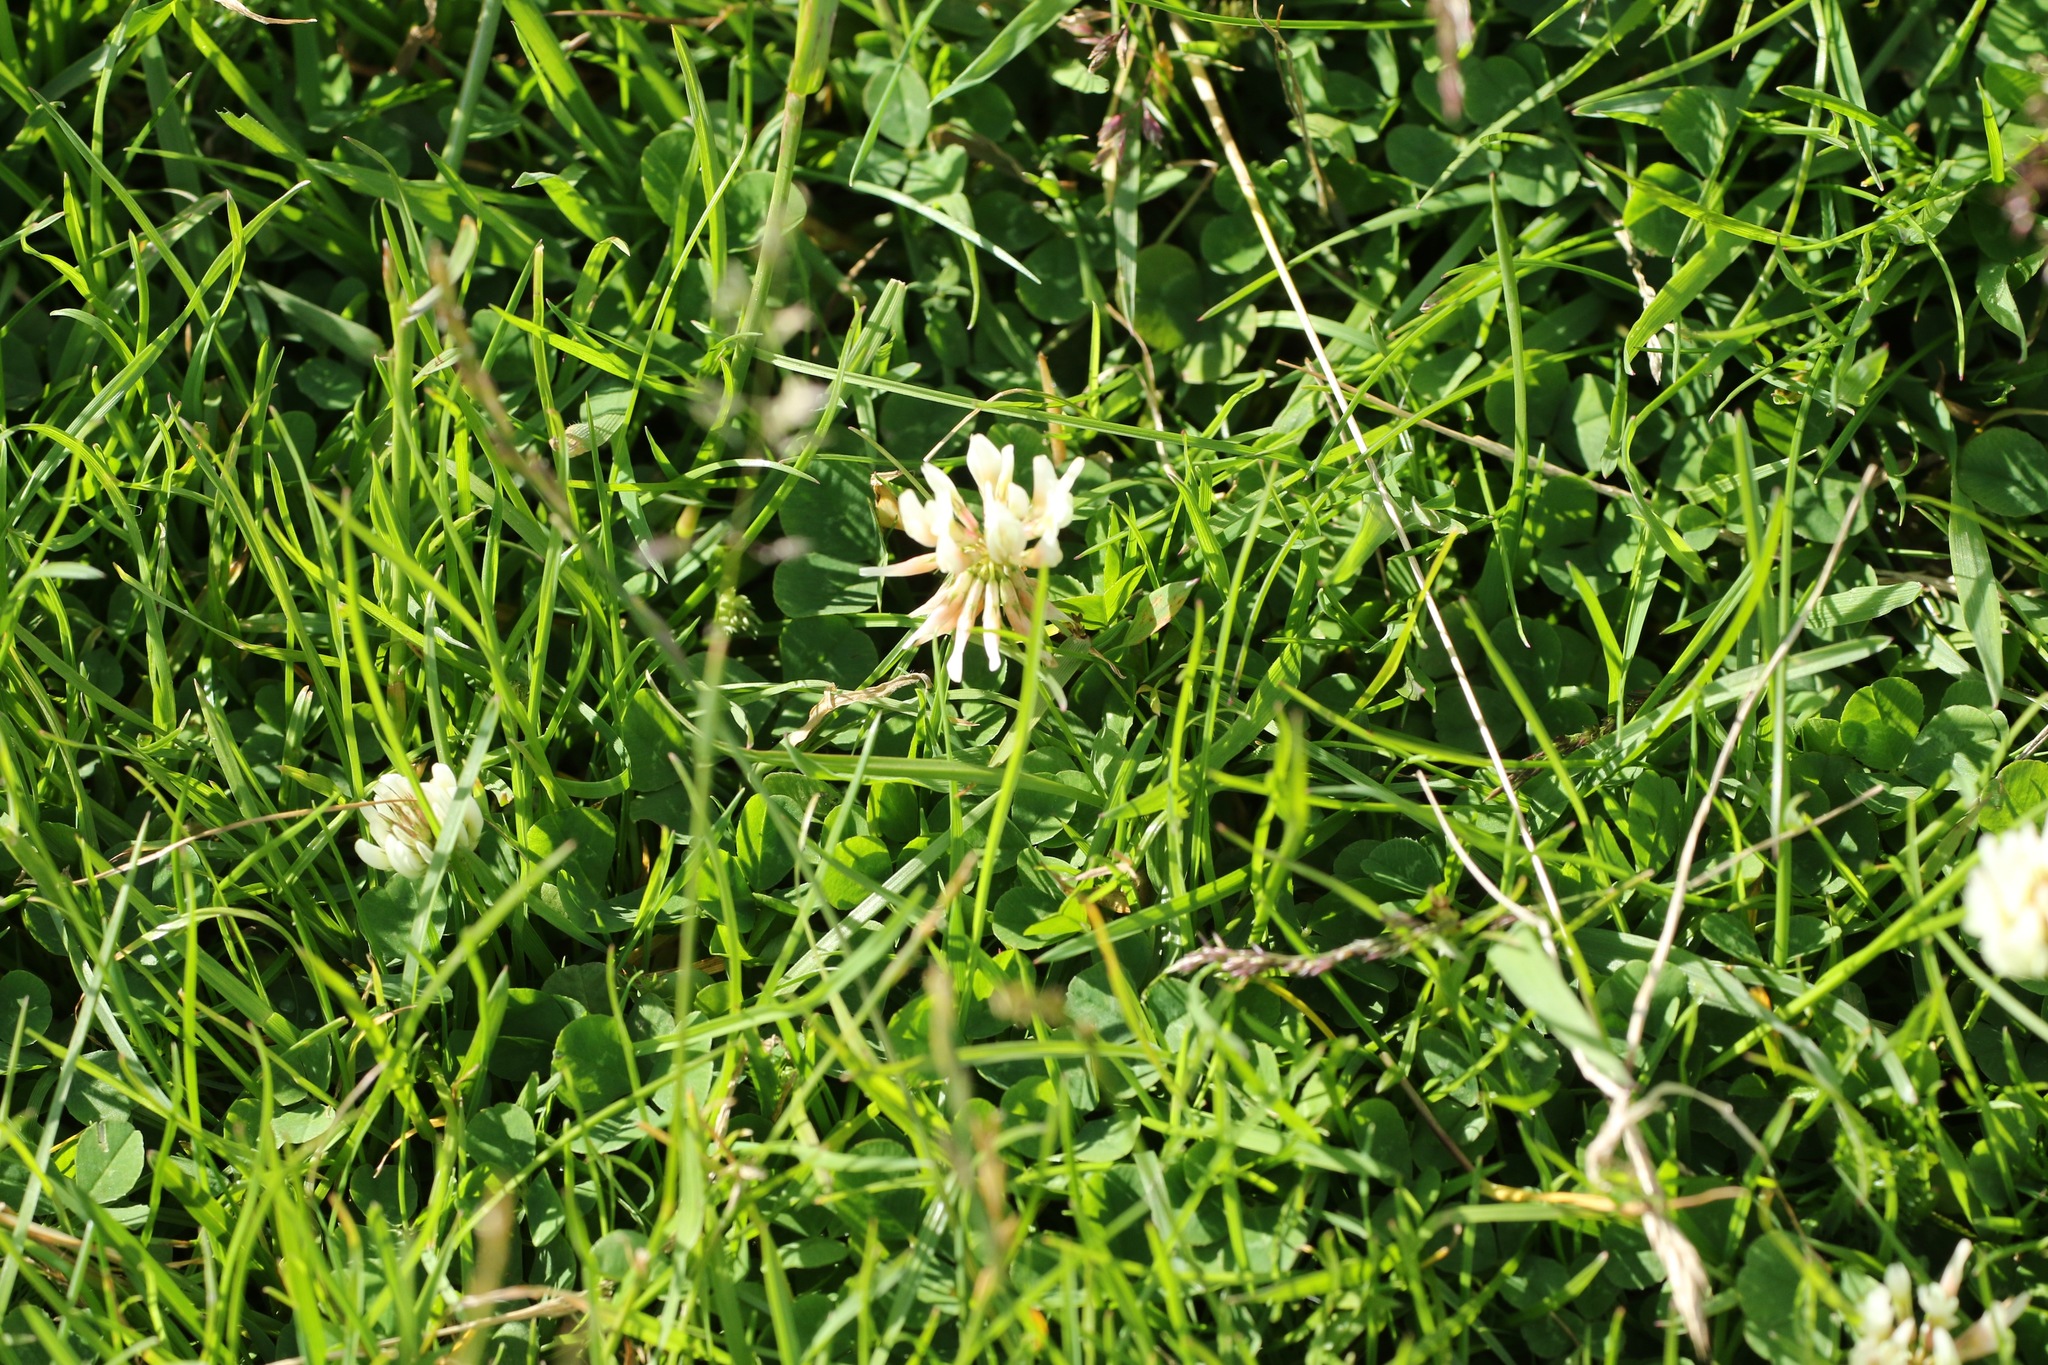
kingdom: Plantae
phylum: Tracheophyta
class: Magnoliopsida
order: Fabales
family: Fabaceae
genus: Trifolium
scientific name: Trifolium repens
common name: White clover
